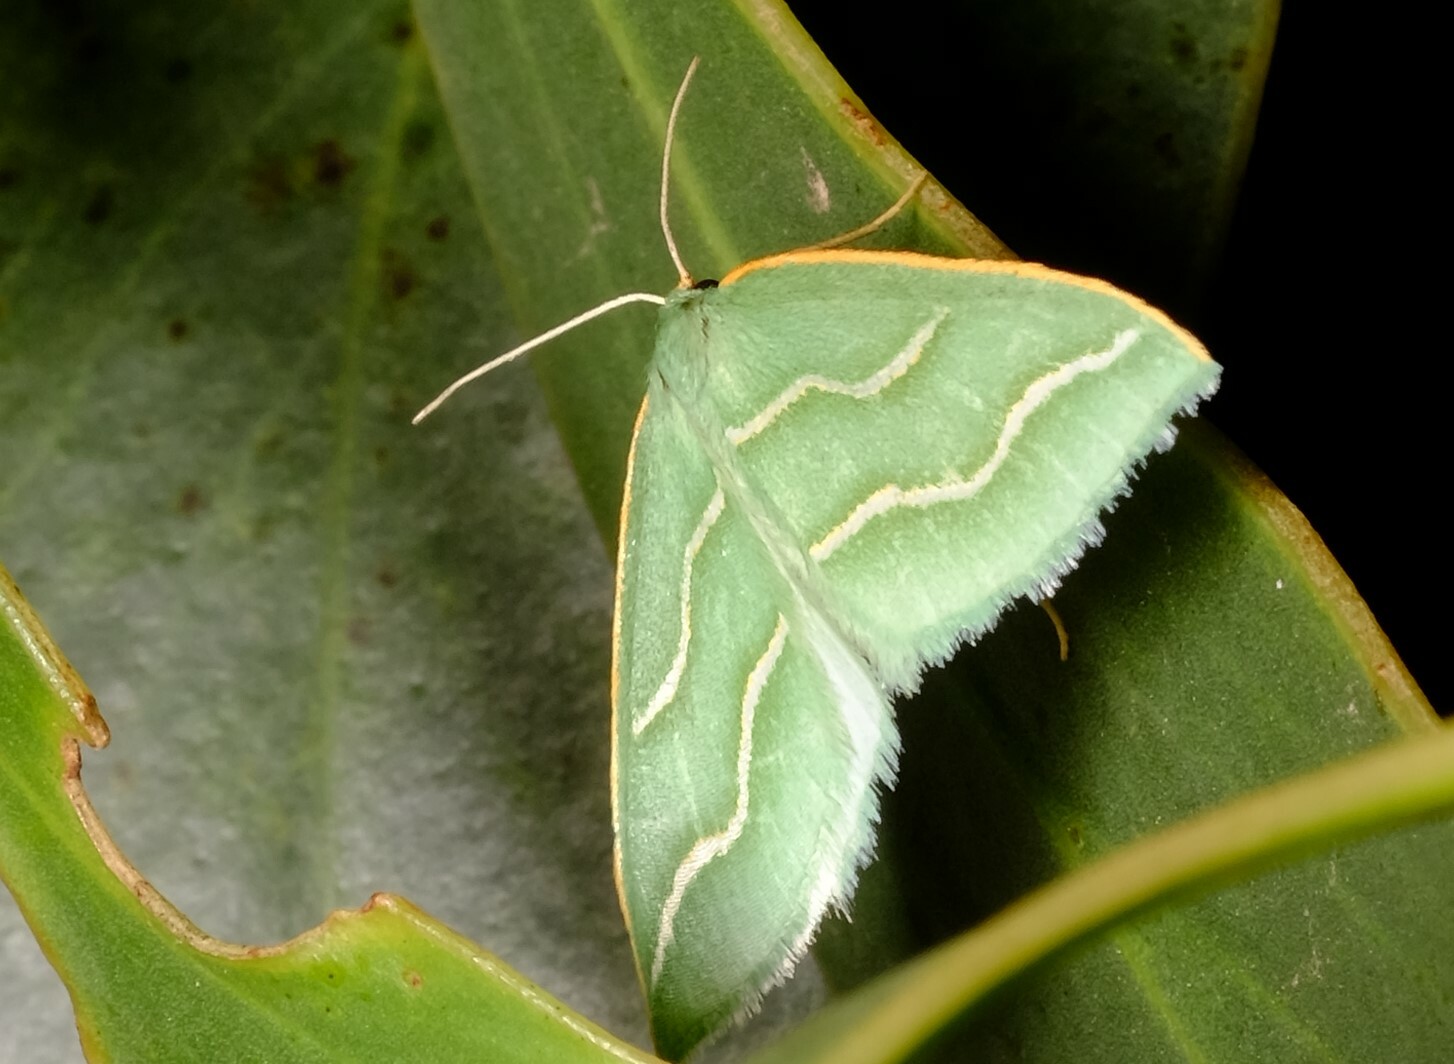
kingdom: Animalia
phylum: Arthropoda
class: Insecta
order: Lepidoptera
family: Geometridae
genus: Euloxia
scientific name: Euloxia meandraria
